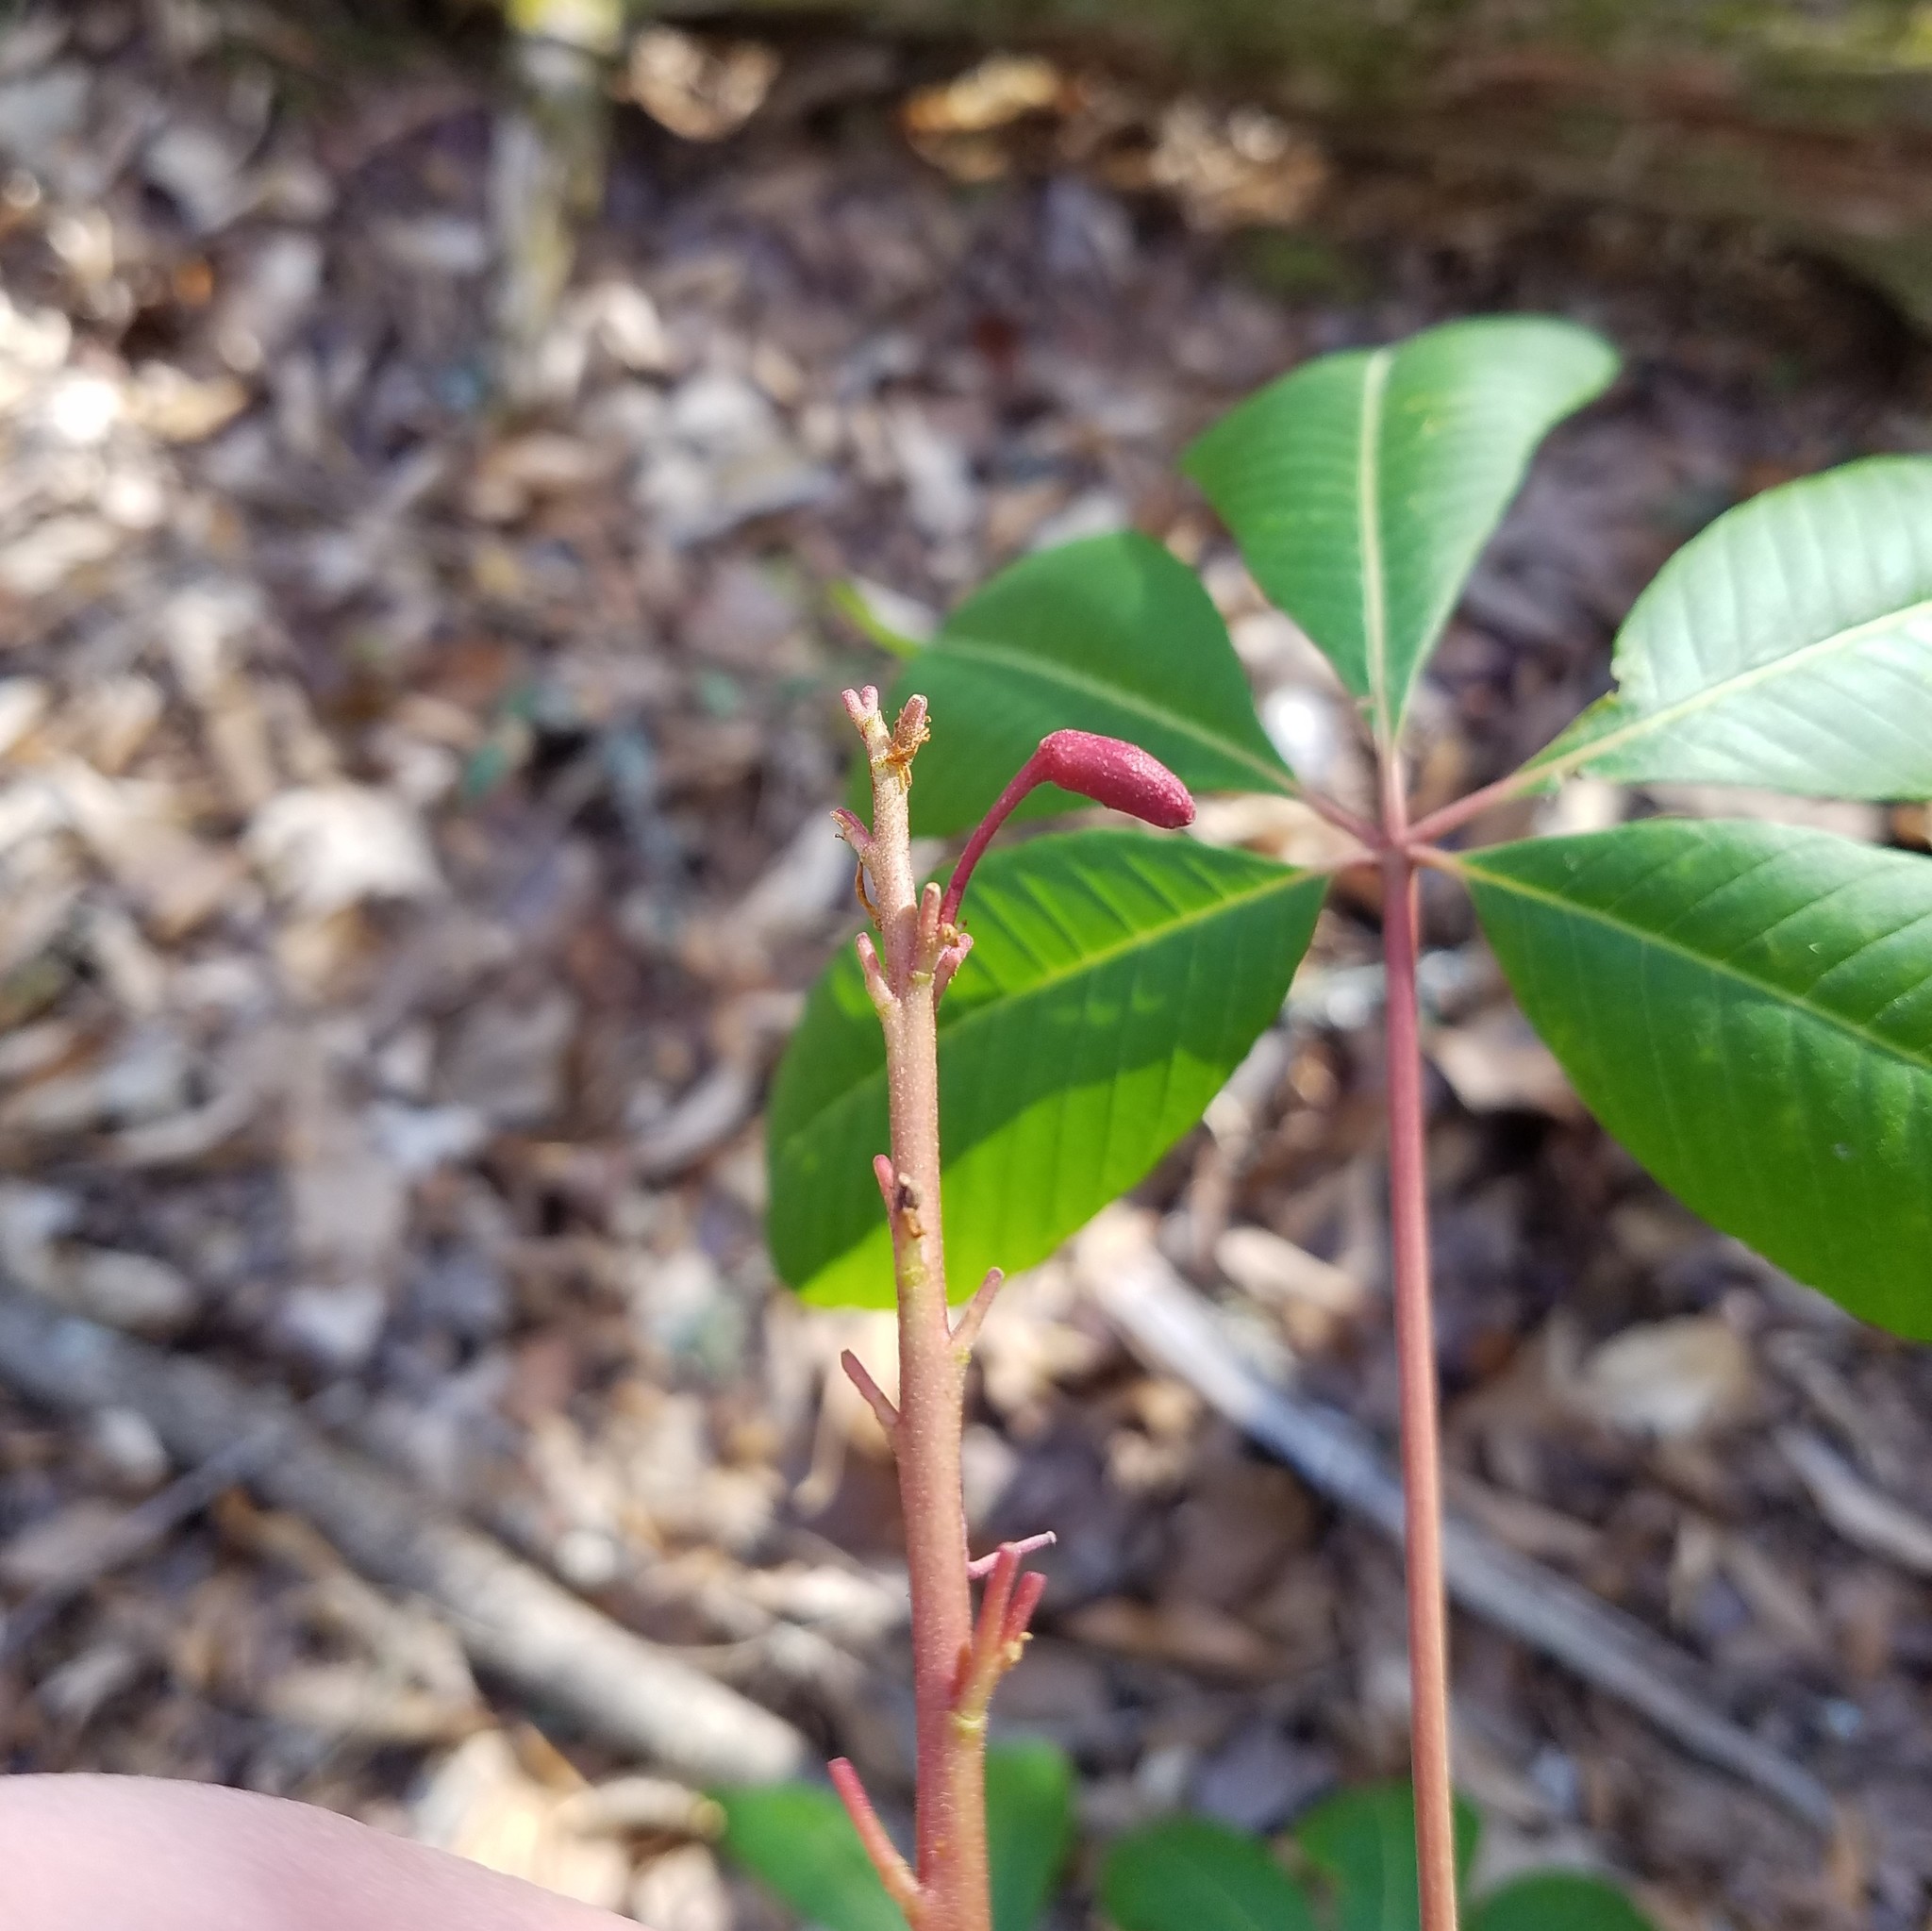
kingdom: Plantae
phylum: Tracheophyta
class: Magnoliopsida
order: Sapindales
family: Sapindaceae
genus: Aesculus
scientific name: Aesculus pavia
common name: Red buckeye
